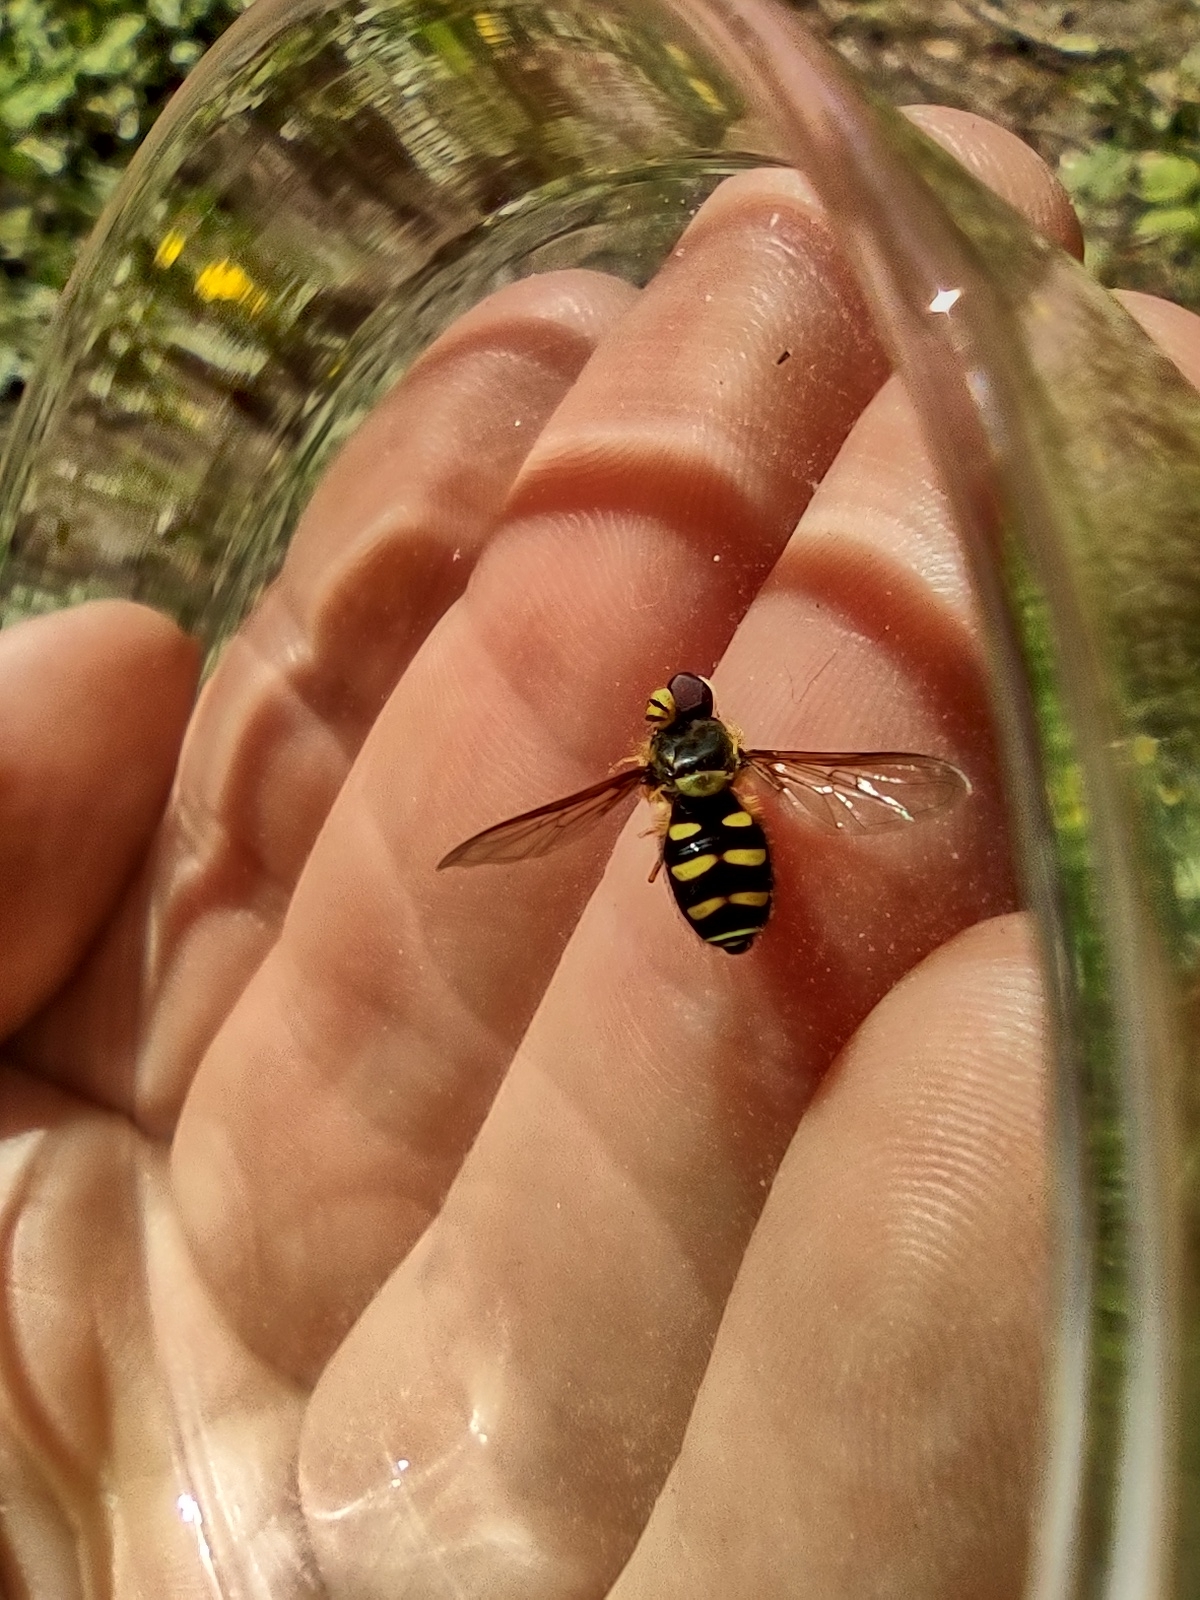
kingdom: Animalia
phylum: Arthropoda
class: Insecta
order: Diptera
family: Syrphidae
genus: Syrphus
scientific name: Syrphus opinator
